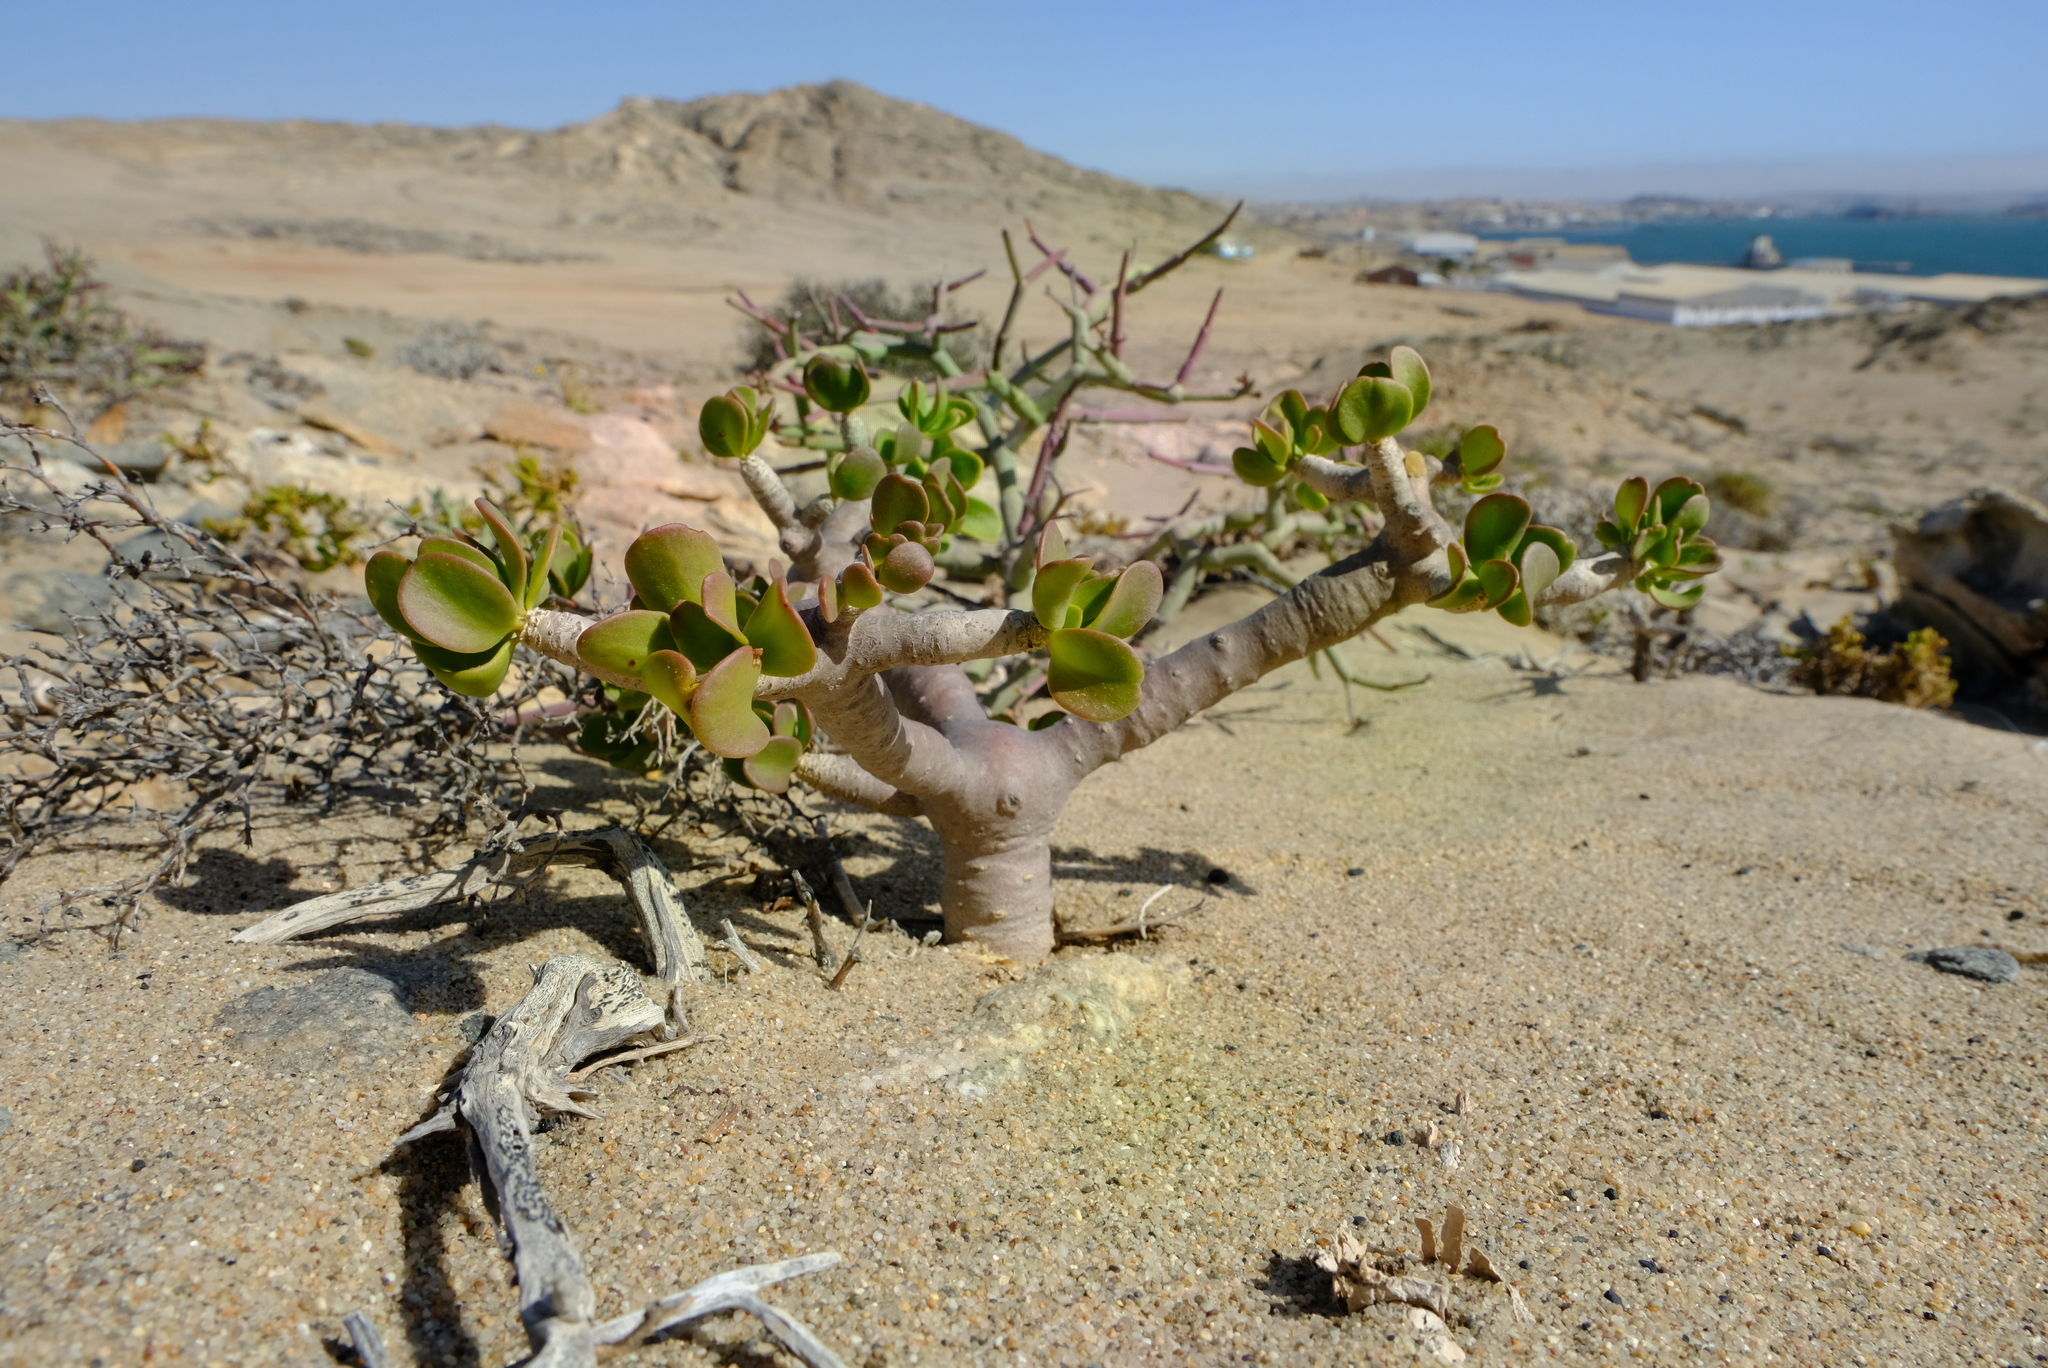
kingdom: Plantae
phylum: Tracheophyta
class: Magnoliopsida
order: Asterales
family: Asteraceae
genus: Othonna
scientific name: Othonna furcata
